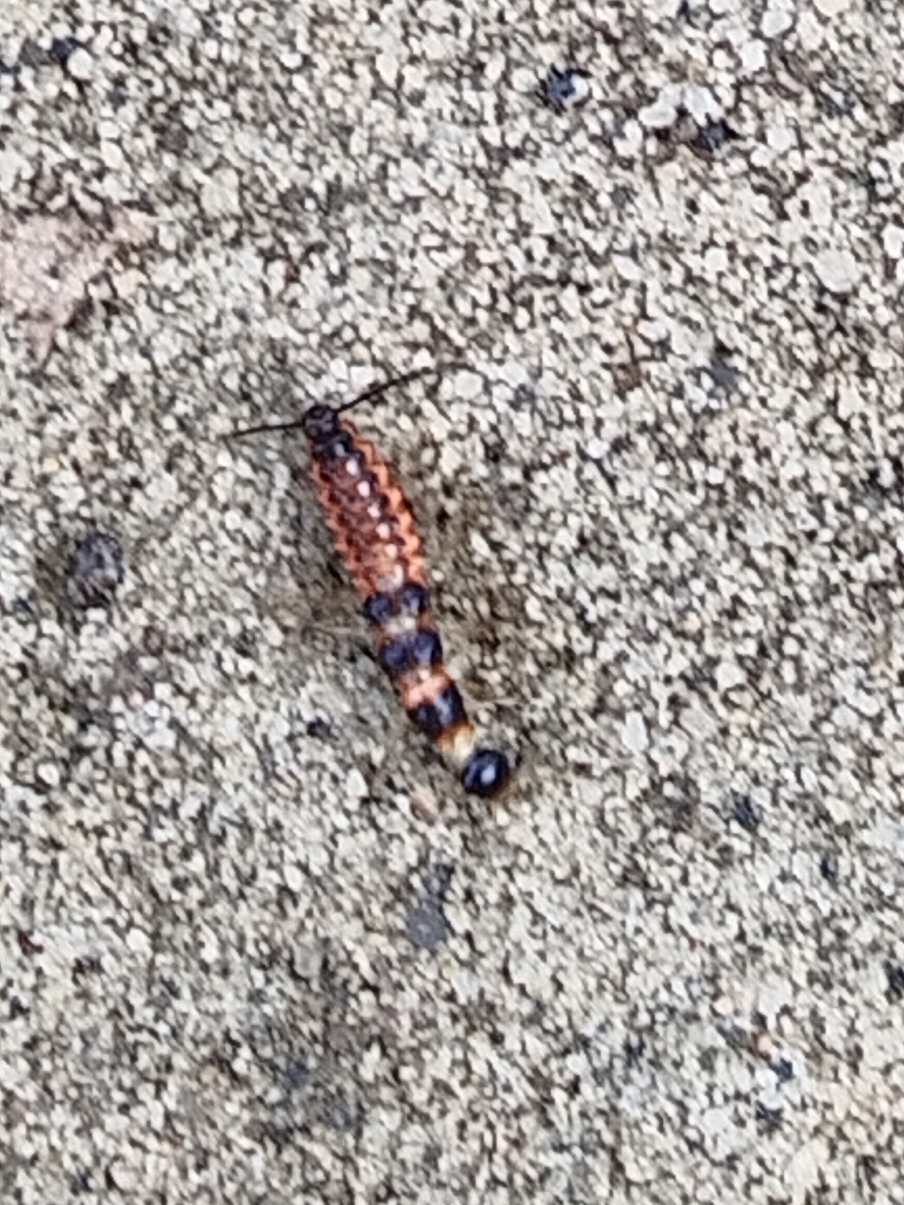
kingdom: Animalia
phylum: Arthropoda
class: Insecta
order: Coleoptera
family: Carabidae
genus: Drypta
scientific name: Drypta dentata
